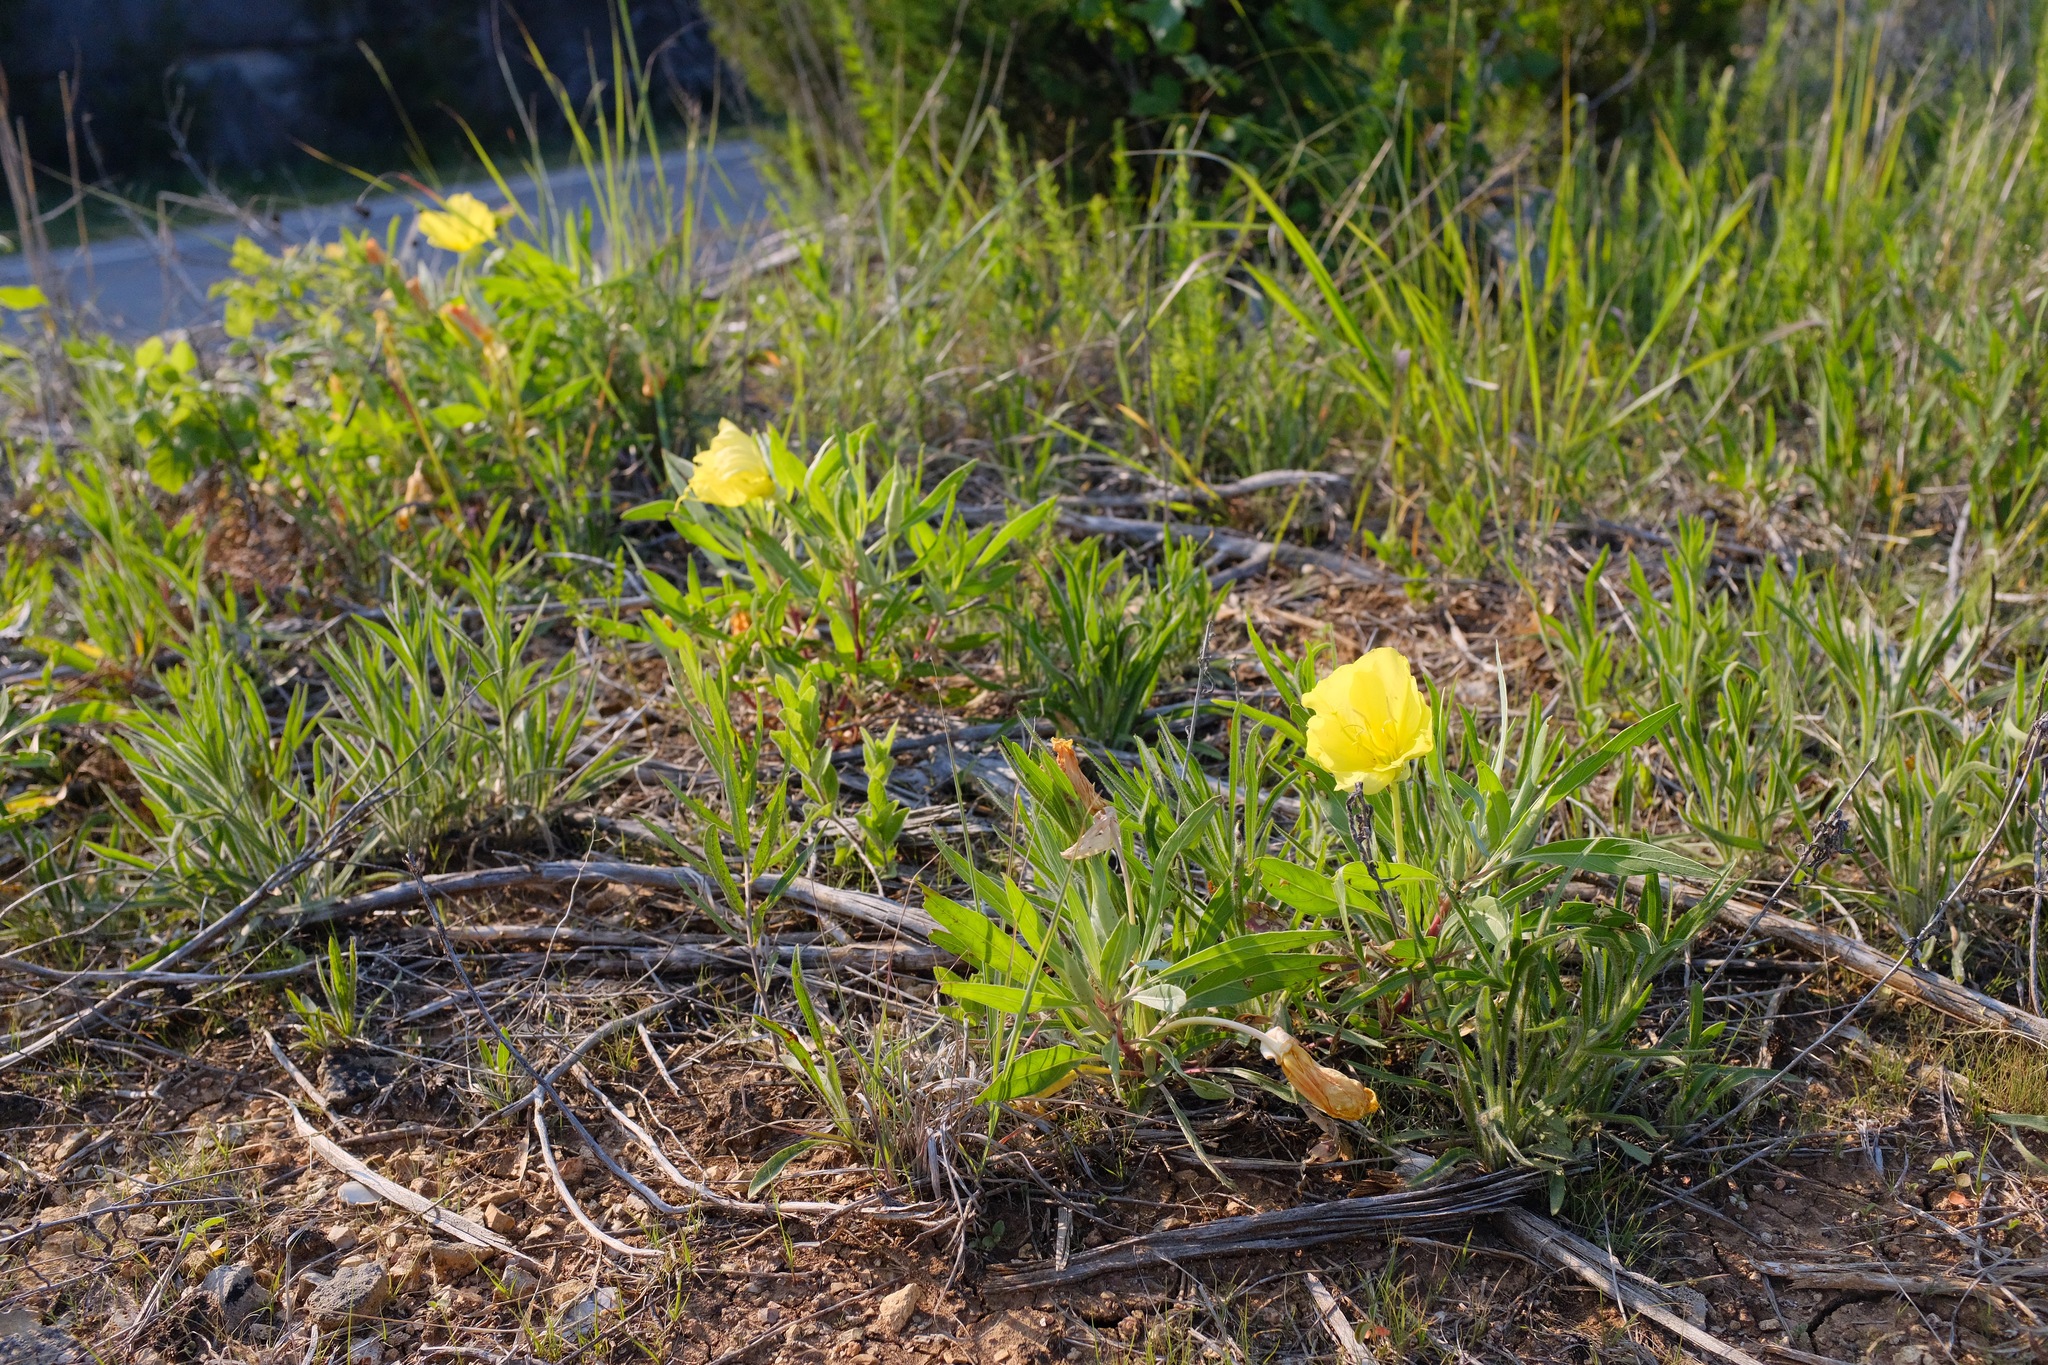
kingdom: Plantae
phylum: Tracheophyta
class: Magnoliopsida
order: Myrtales
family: Onagraceae
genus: Oenothera
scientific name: Oenothera macrocarpa
